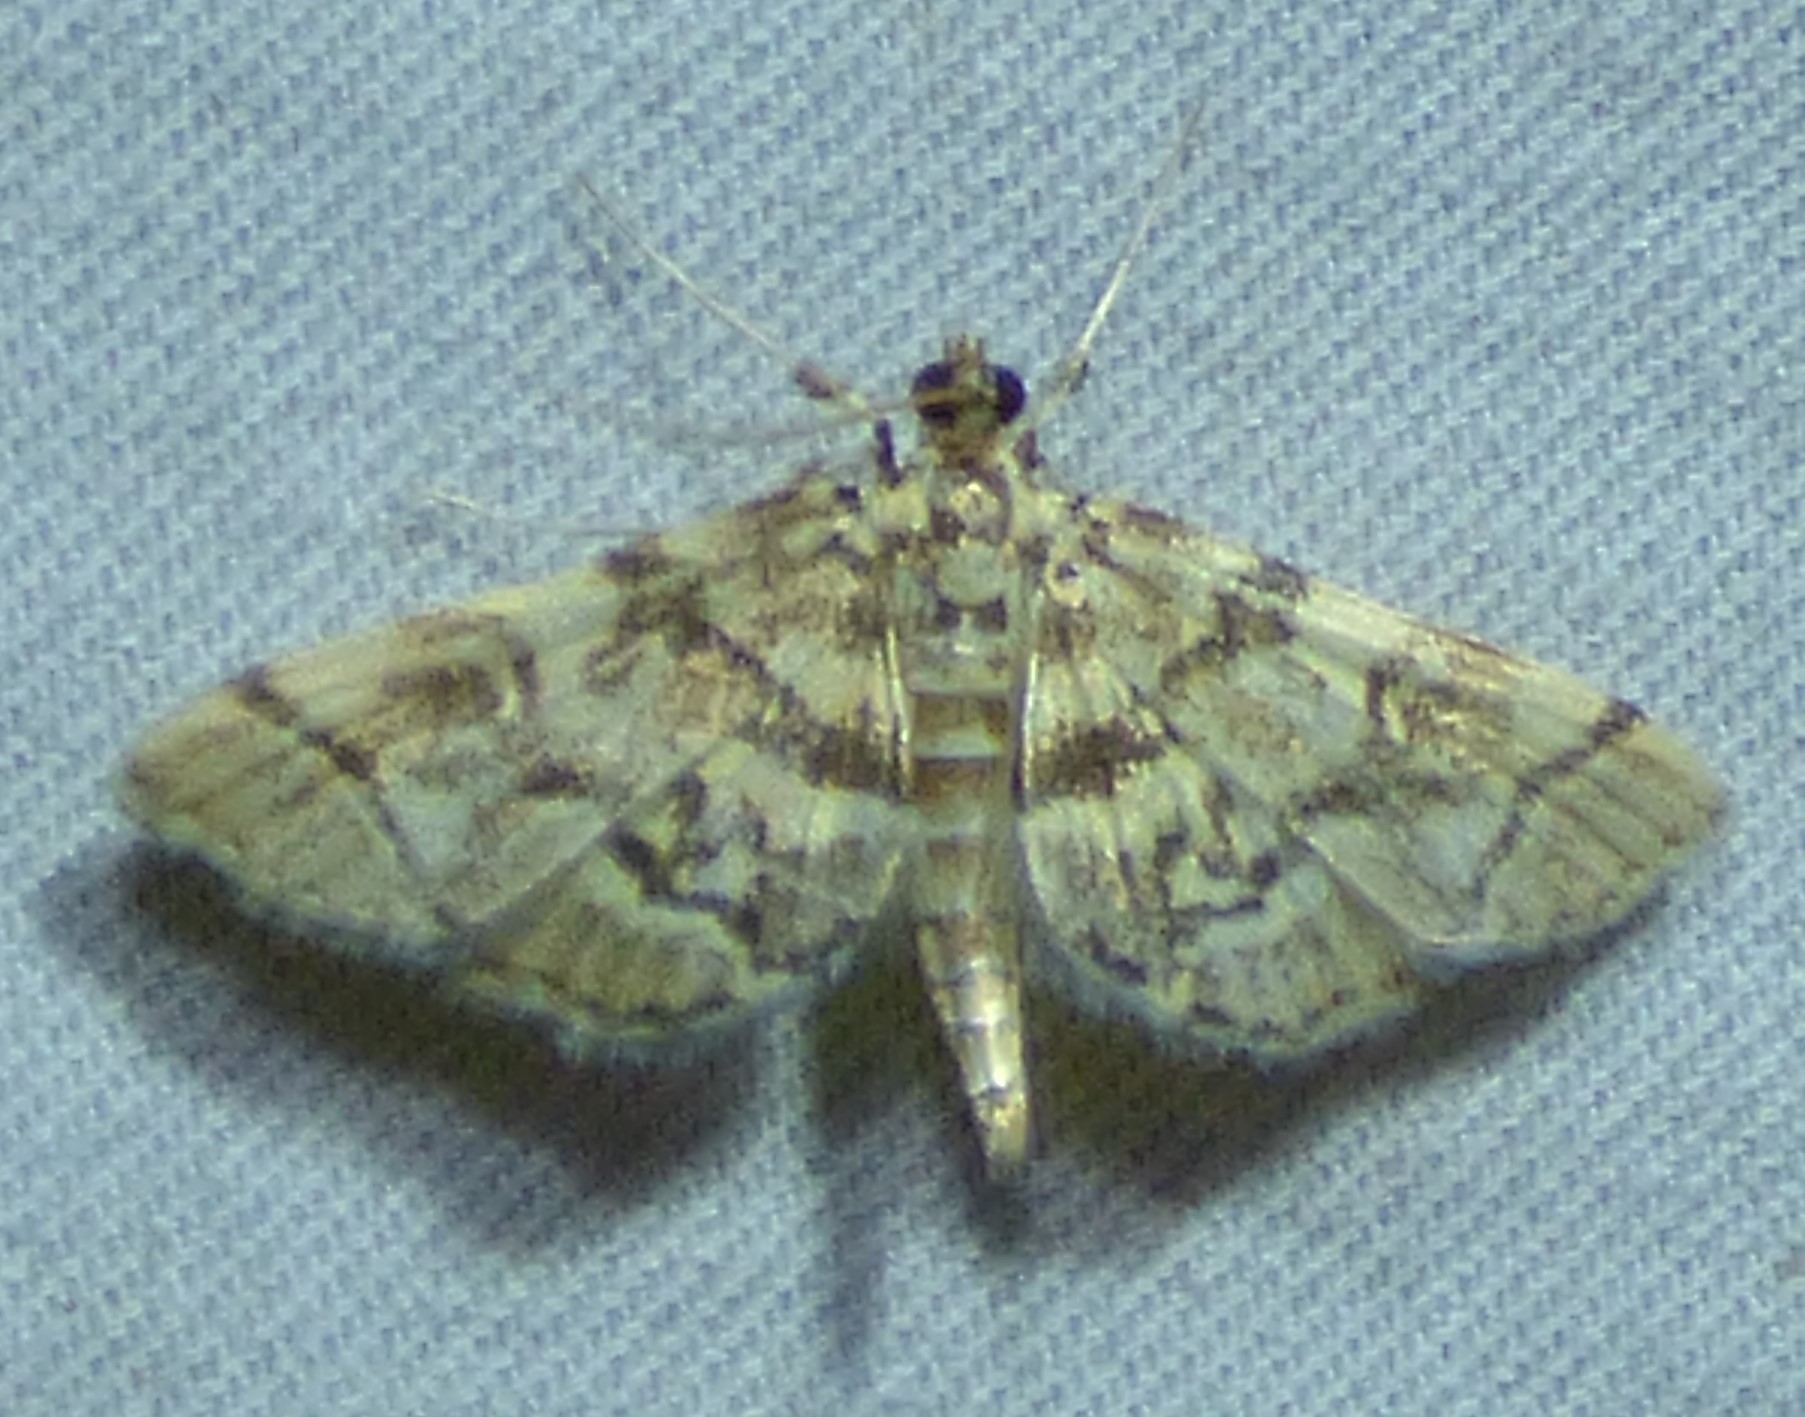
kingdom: Animalia
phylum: Arthropoda
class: Insecta
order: Lepidoptera
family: Crambidae
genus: Apogeshna
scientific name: Apogeshna stenialis
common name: Checkered apogeshna moth
